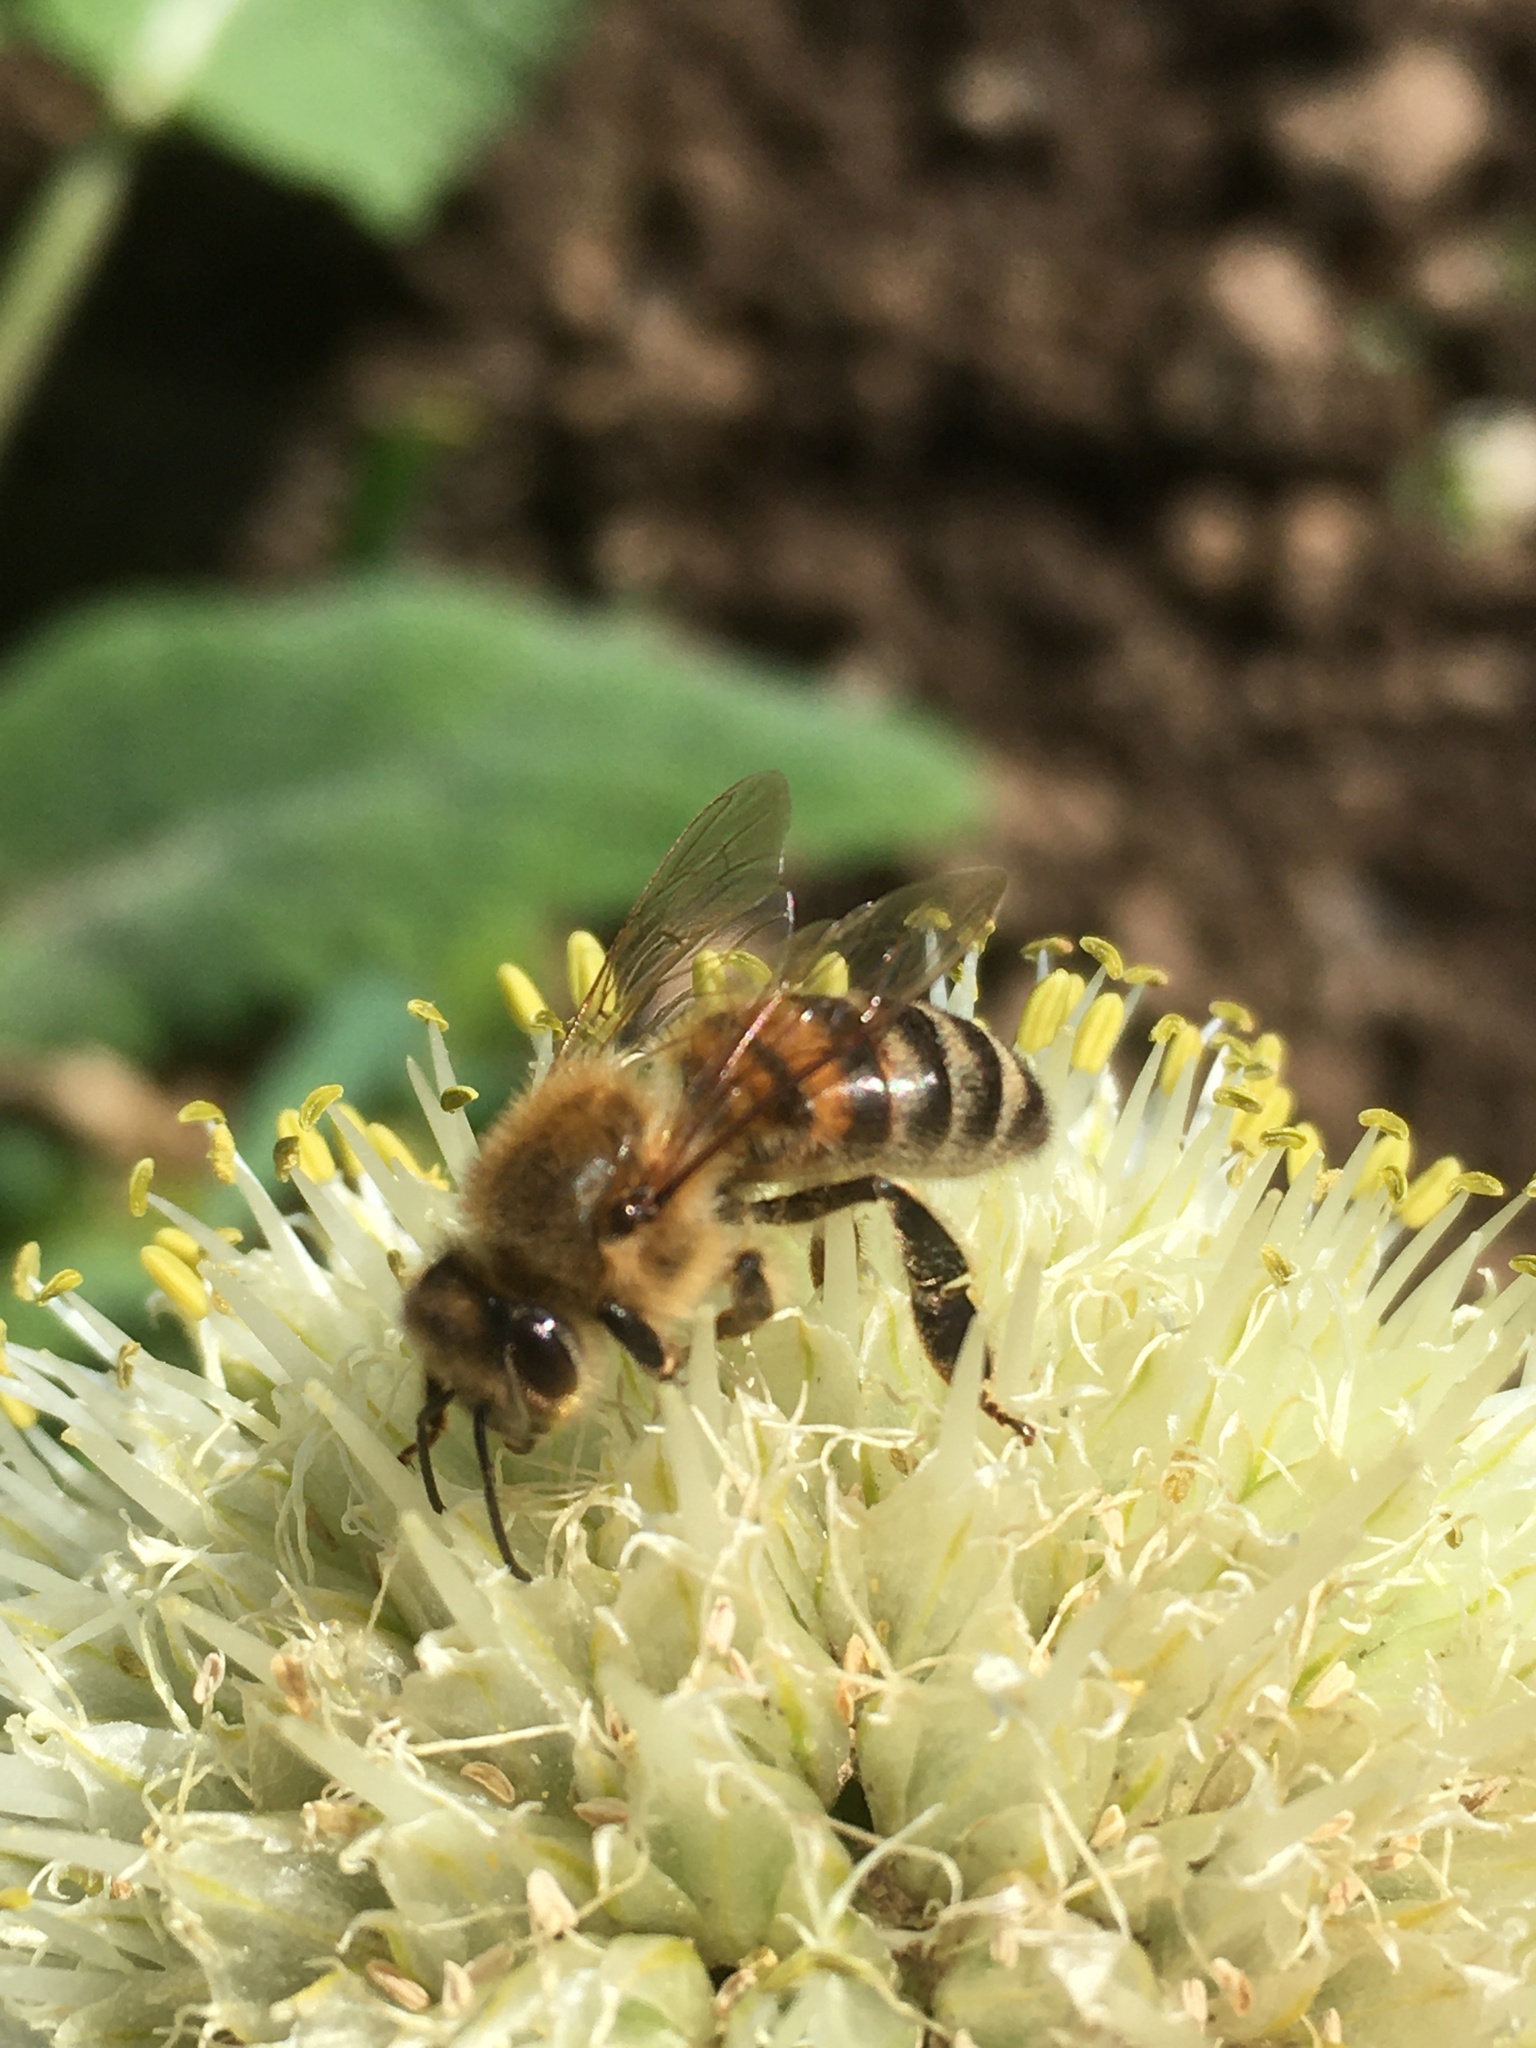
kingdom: Animalia
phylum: Arthropoda
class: Insecta
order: Hymenoptera
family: Apidae
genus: Apis
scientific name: Apis mellifera
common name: Honey bee
